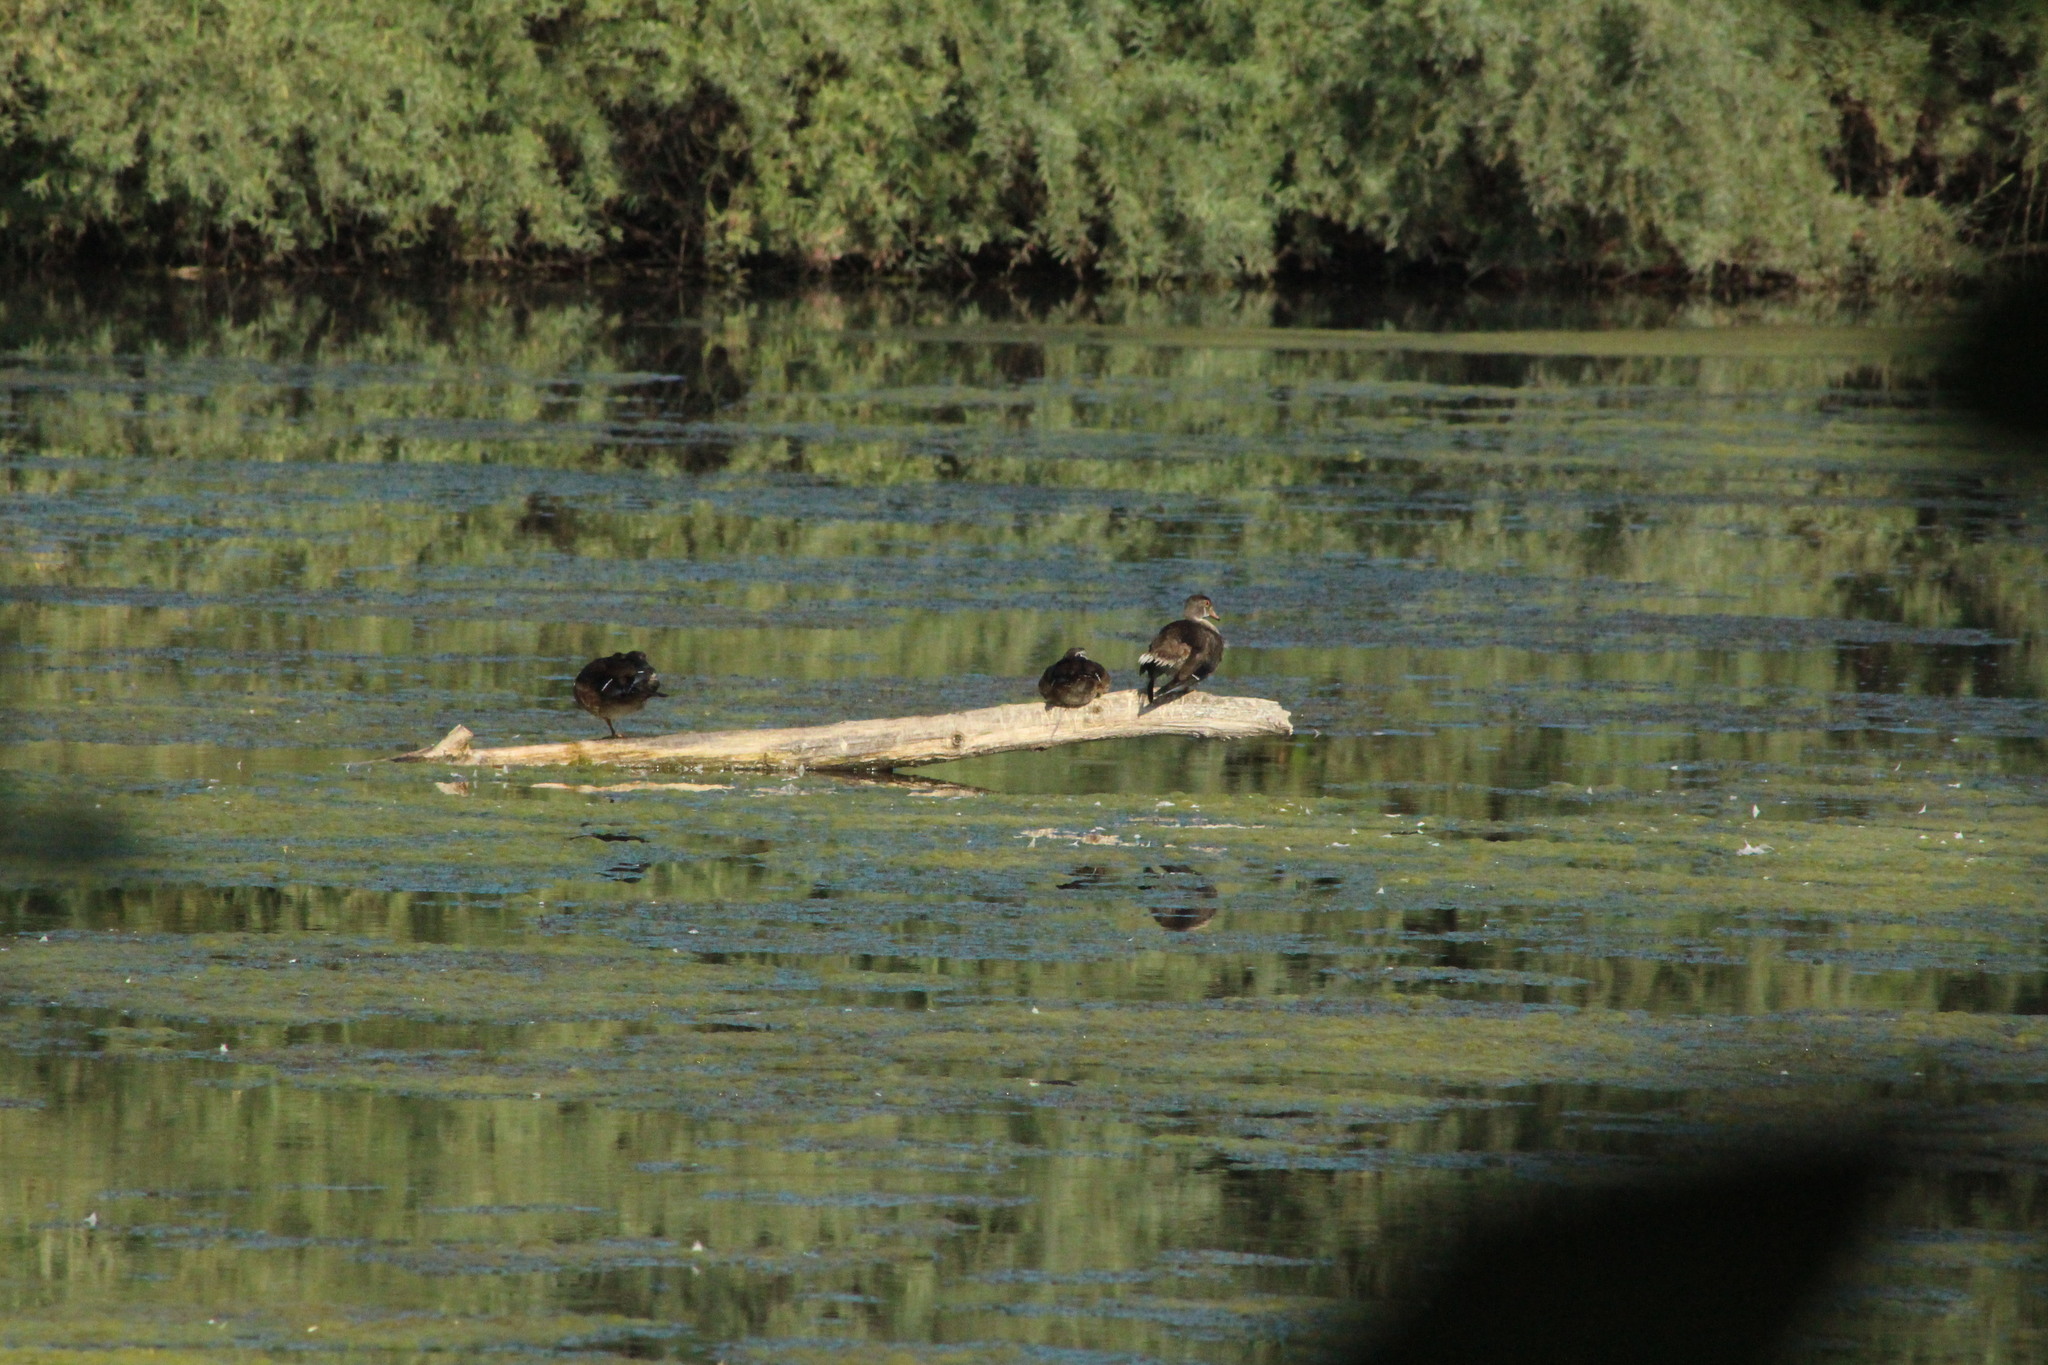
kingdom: Animalia
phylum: Chordata
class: Aves
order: Anseriformes
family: Anatidae
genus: Aix
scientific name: Aix sponsa
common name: Wood duck
